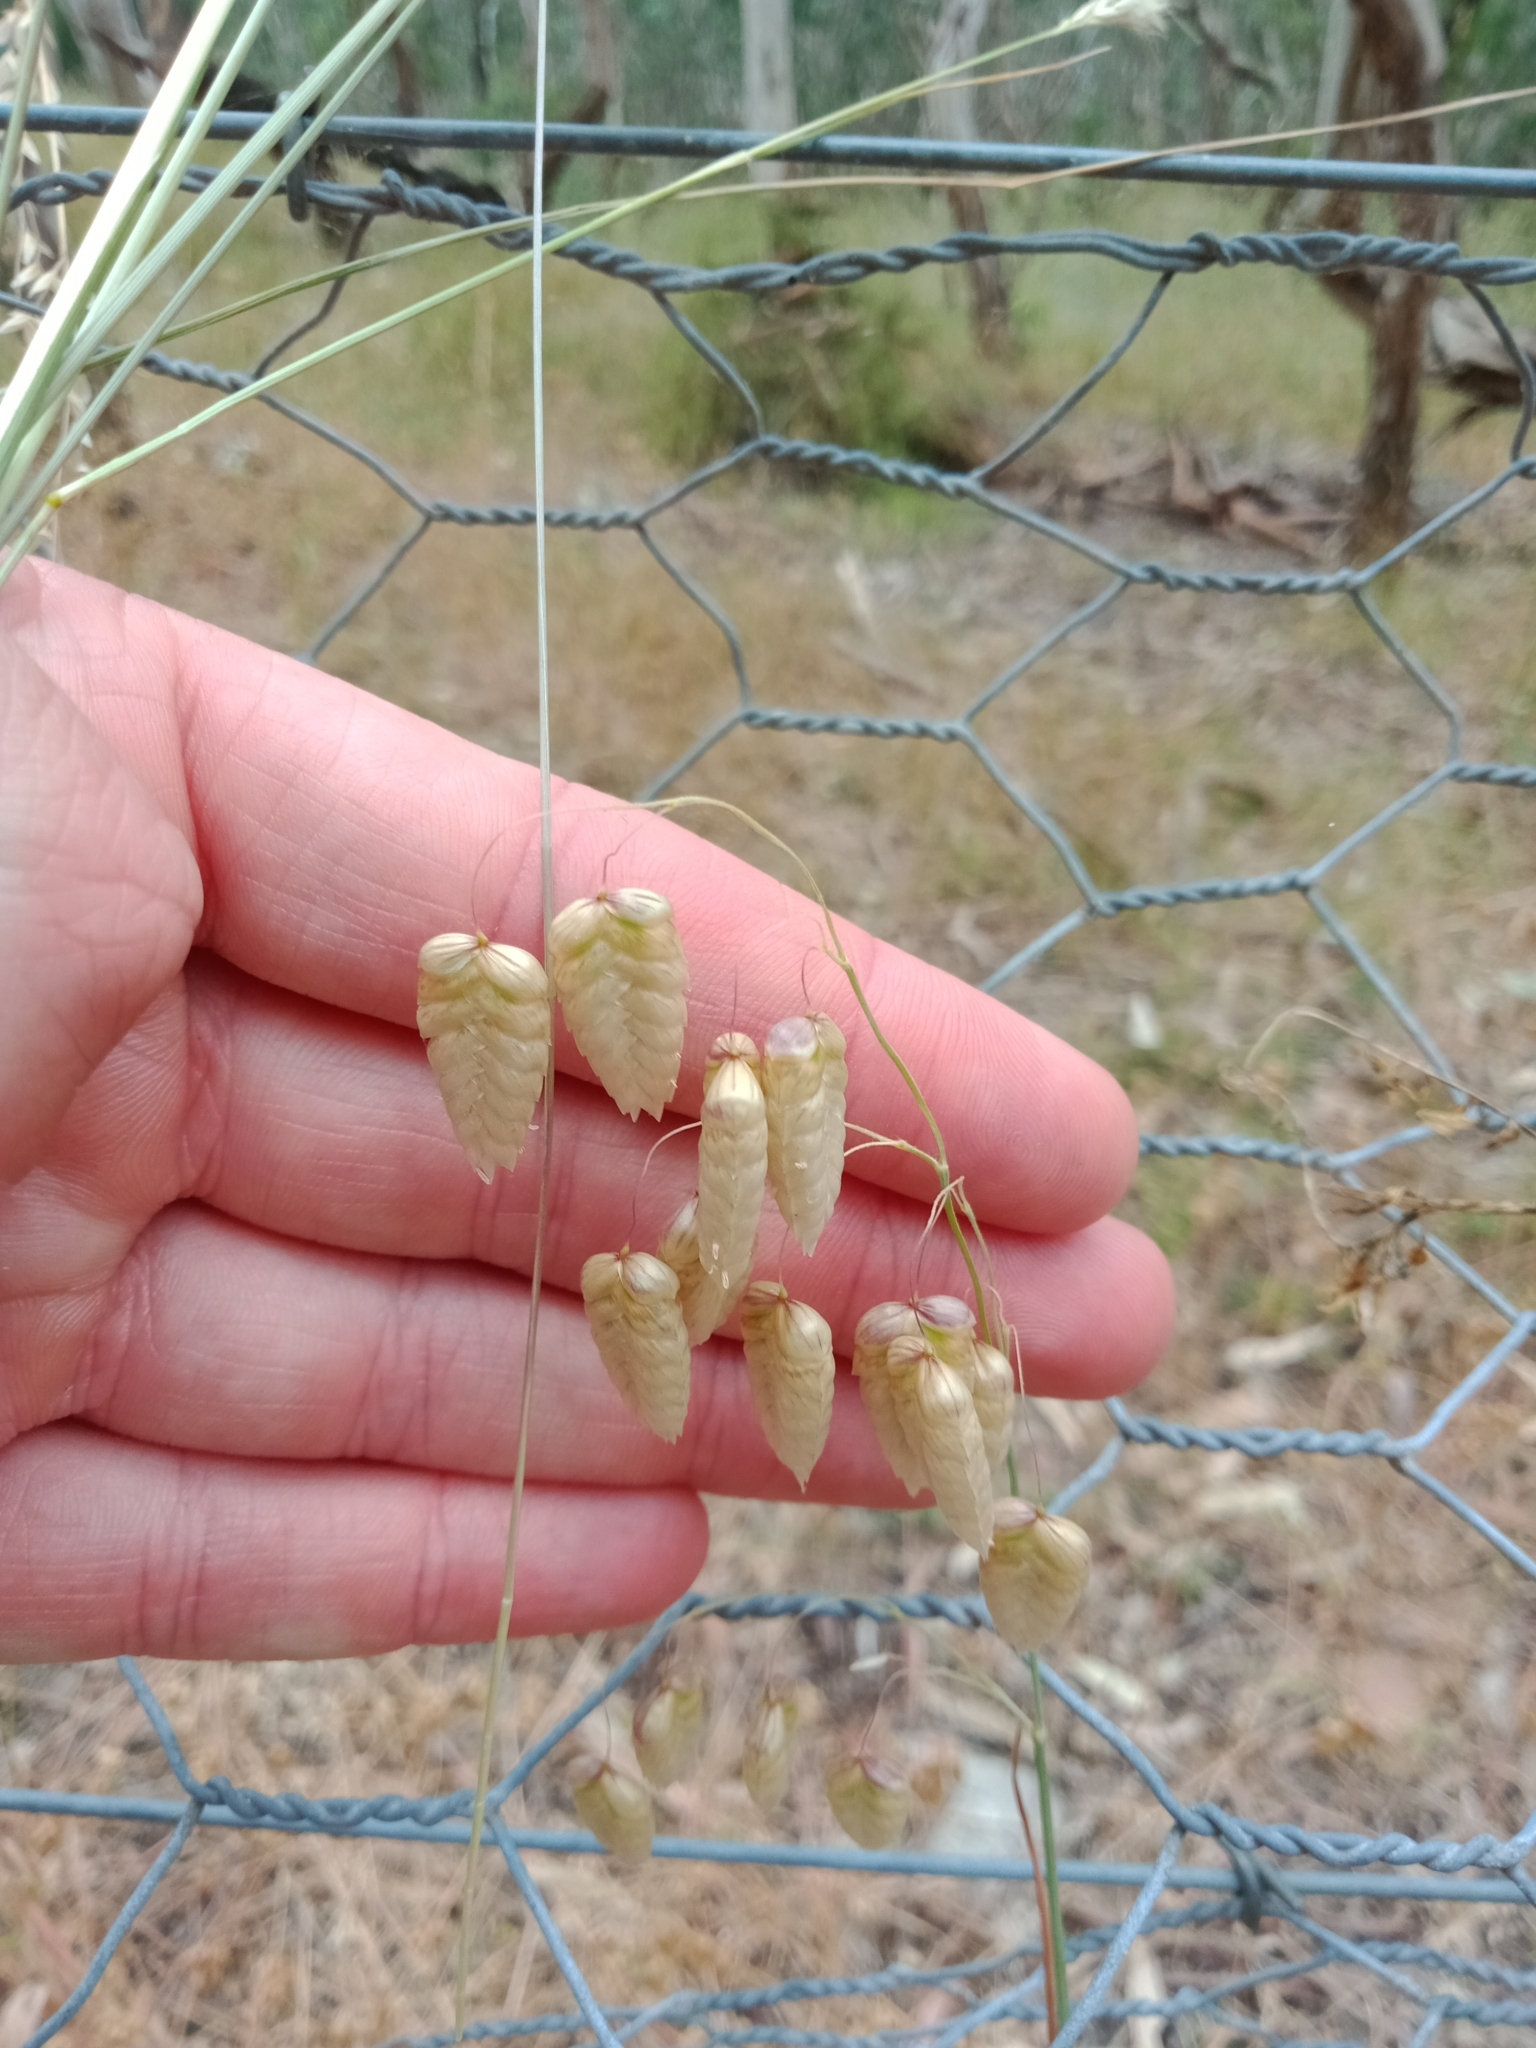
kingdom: Plantae
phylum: Tracheophyta
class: Liliopsida
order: Poales
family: Poaceae
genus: Briza
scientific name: Briza maxima
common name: Big quakinggrass
